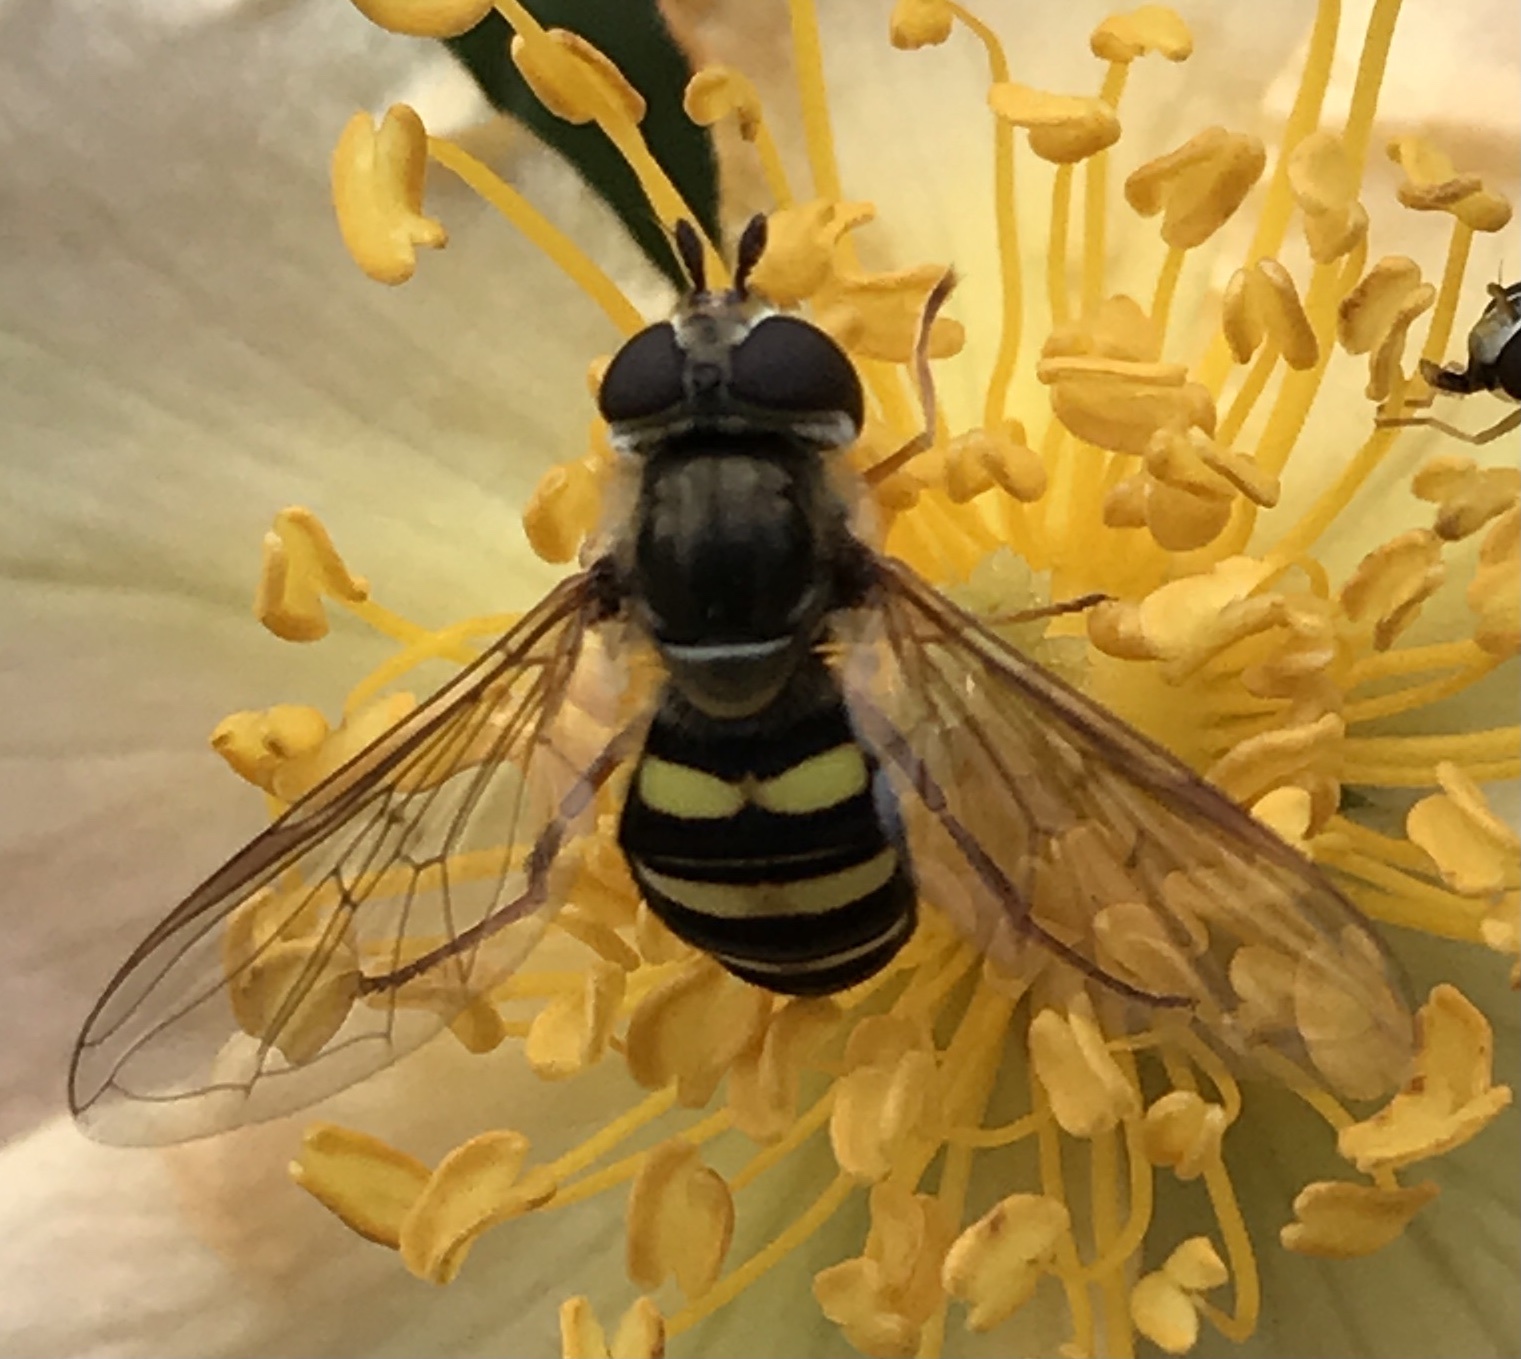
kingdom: Animalia
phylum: Arthropoda
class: Insecta
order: Diptera
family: Syrphidae
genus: Eupeodes
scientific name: Eupeodes
